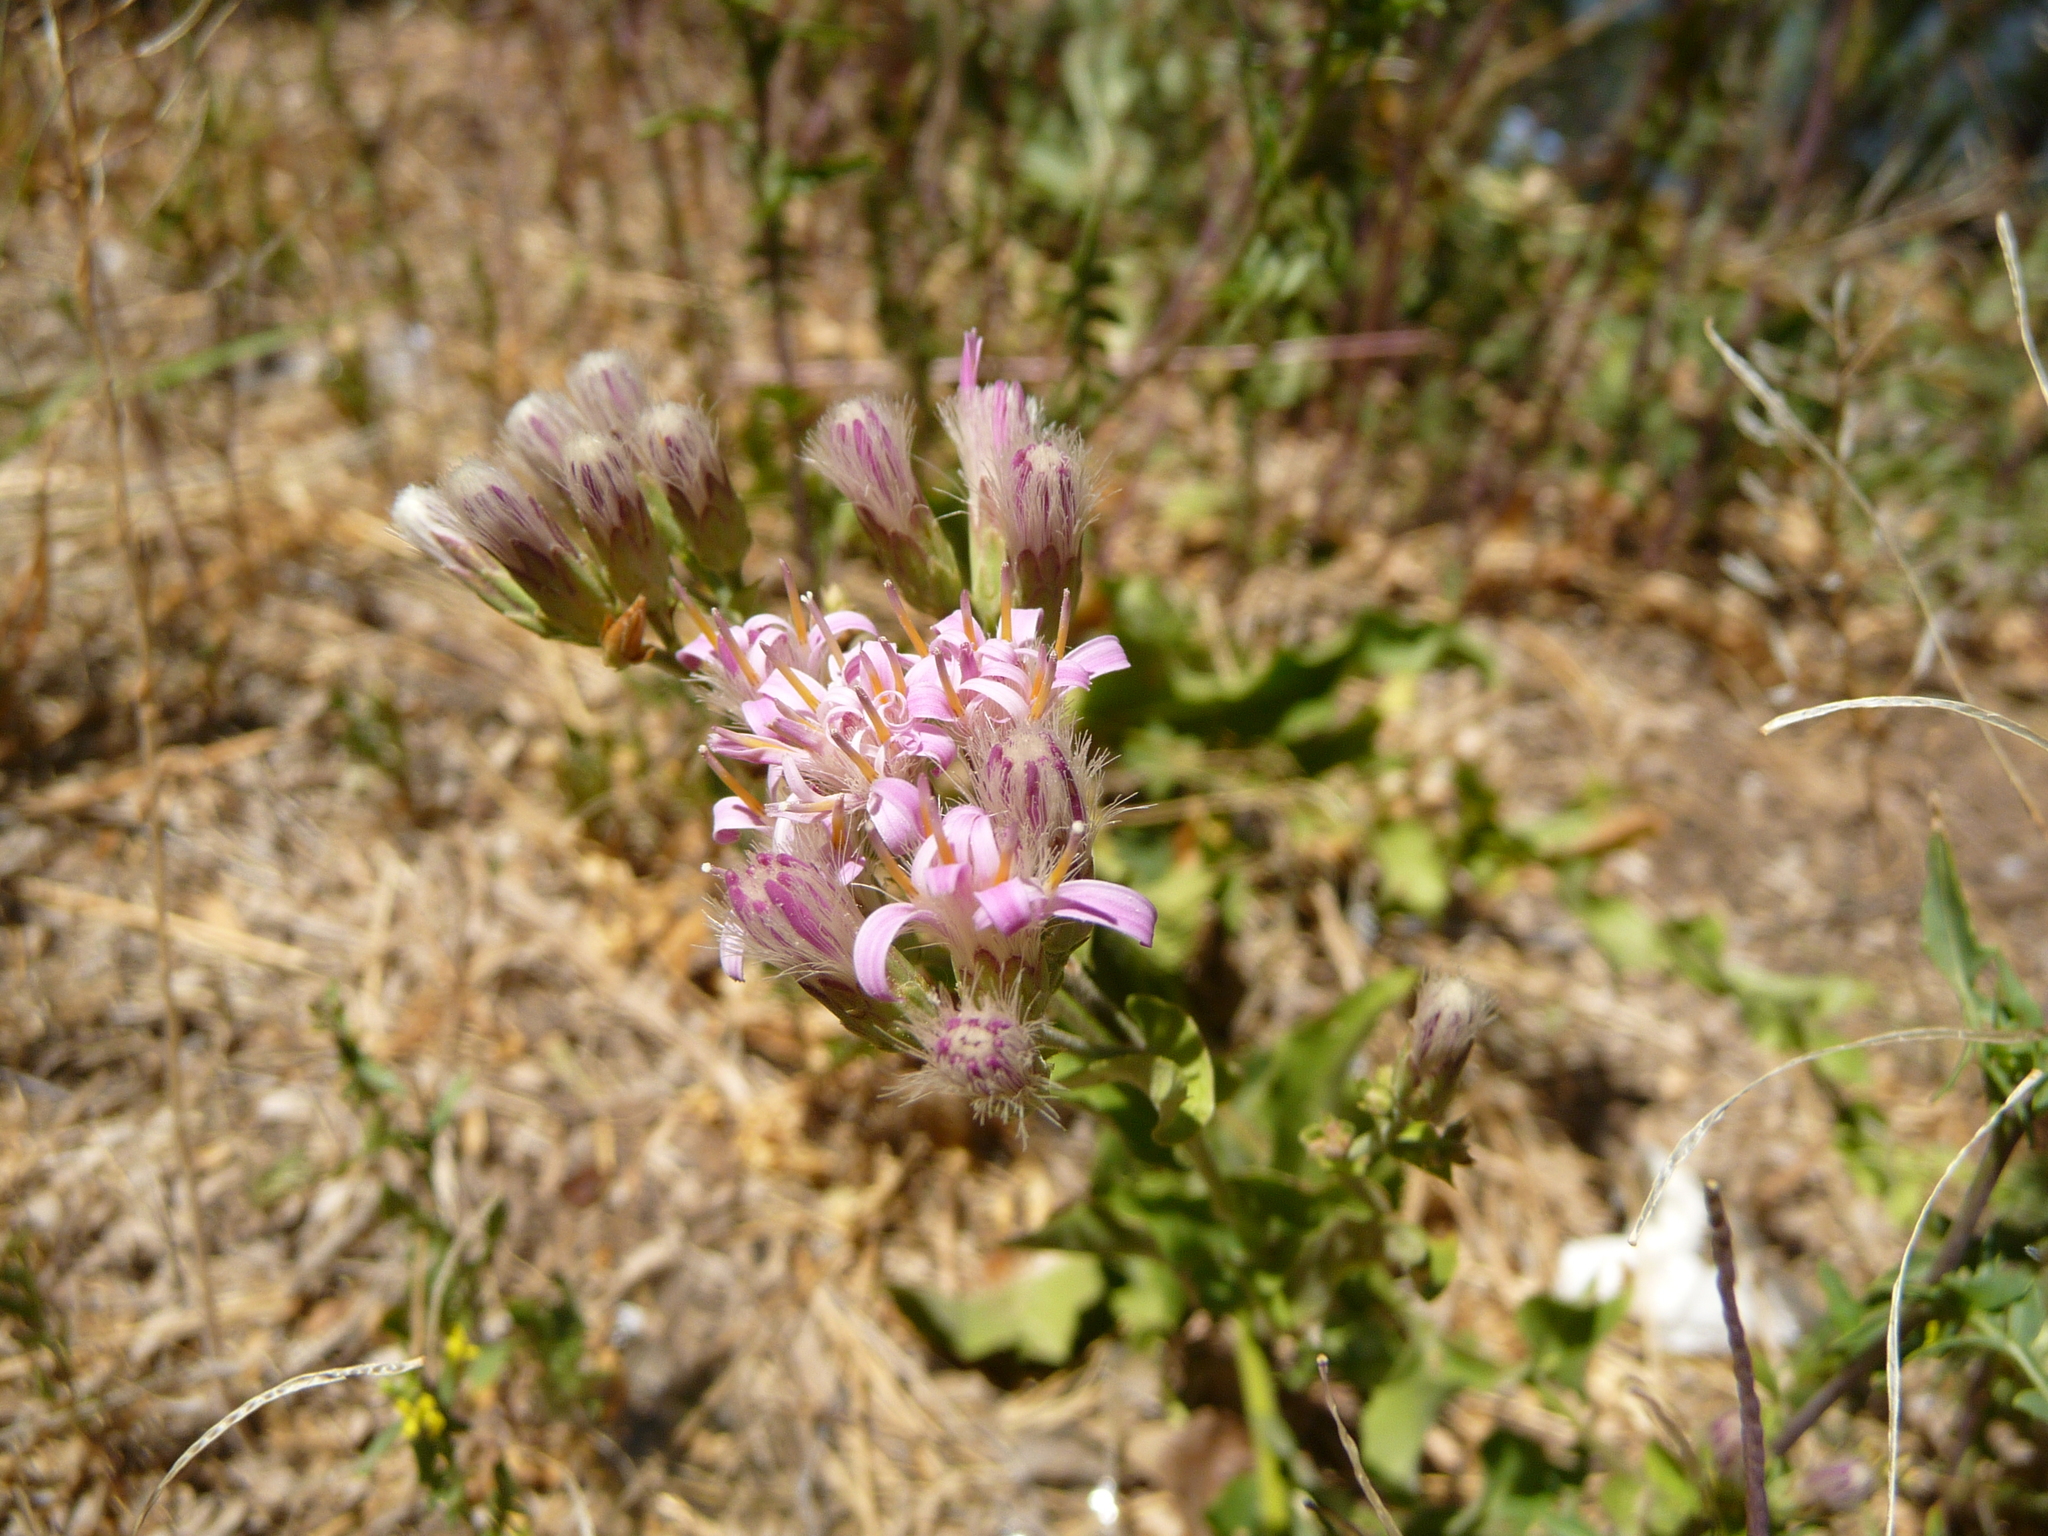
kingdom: Plantae
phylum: Tracheophyta
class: Magnoliopsida
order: Asterales
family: Asteraceae
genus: Acourtia
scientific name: Acourtia wrightii
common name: Brownfoot
